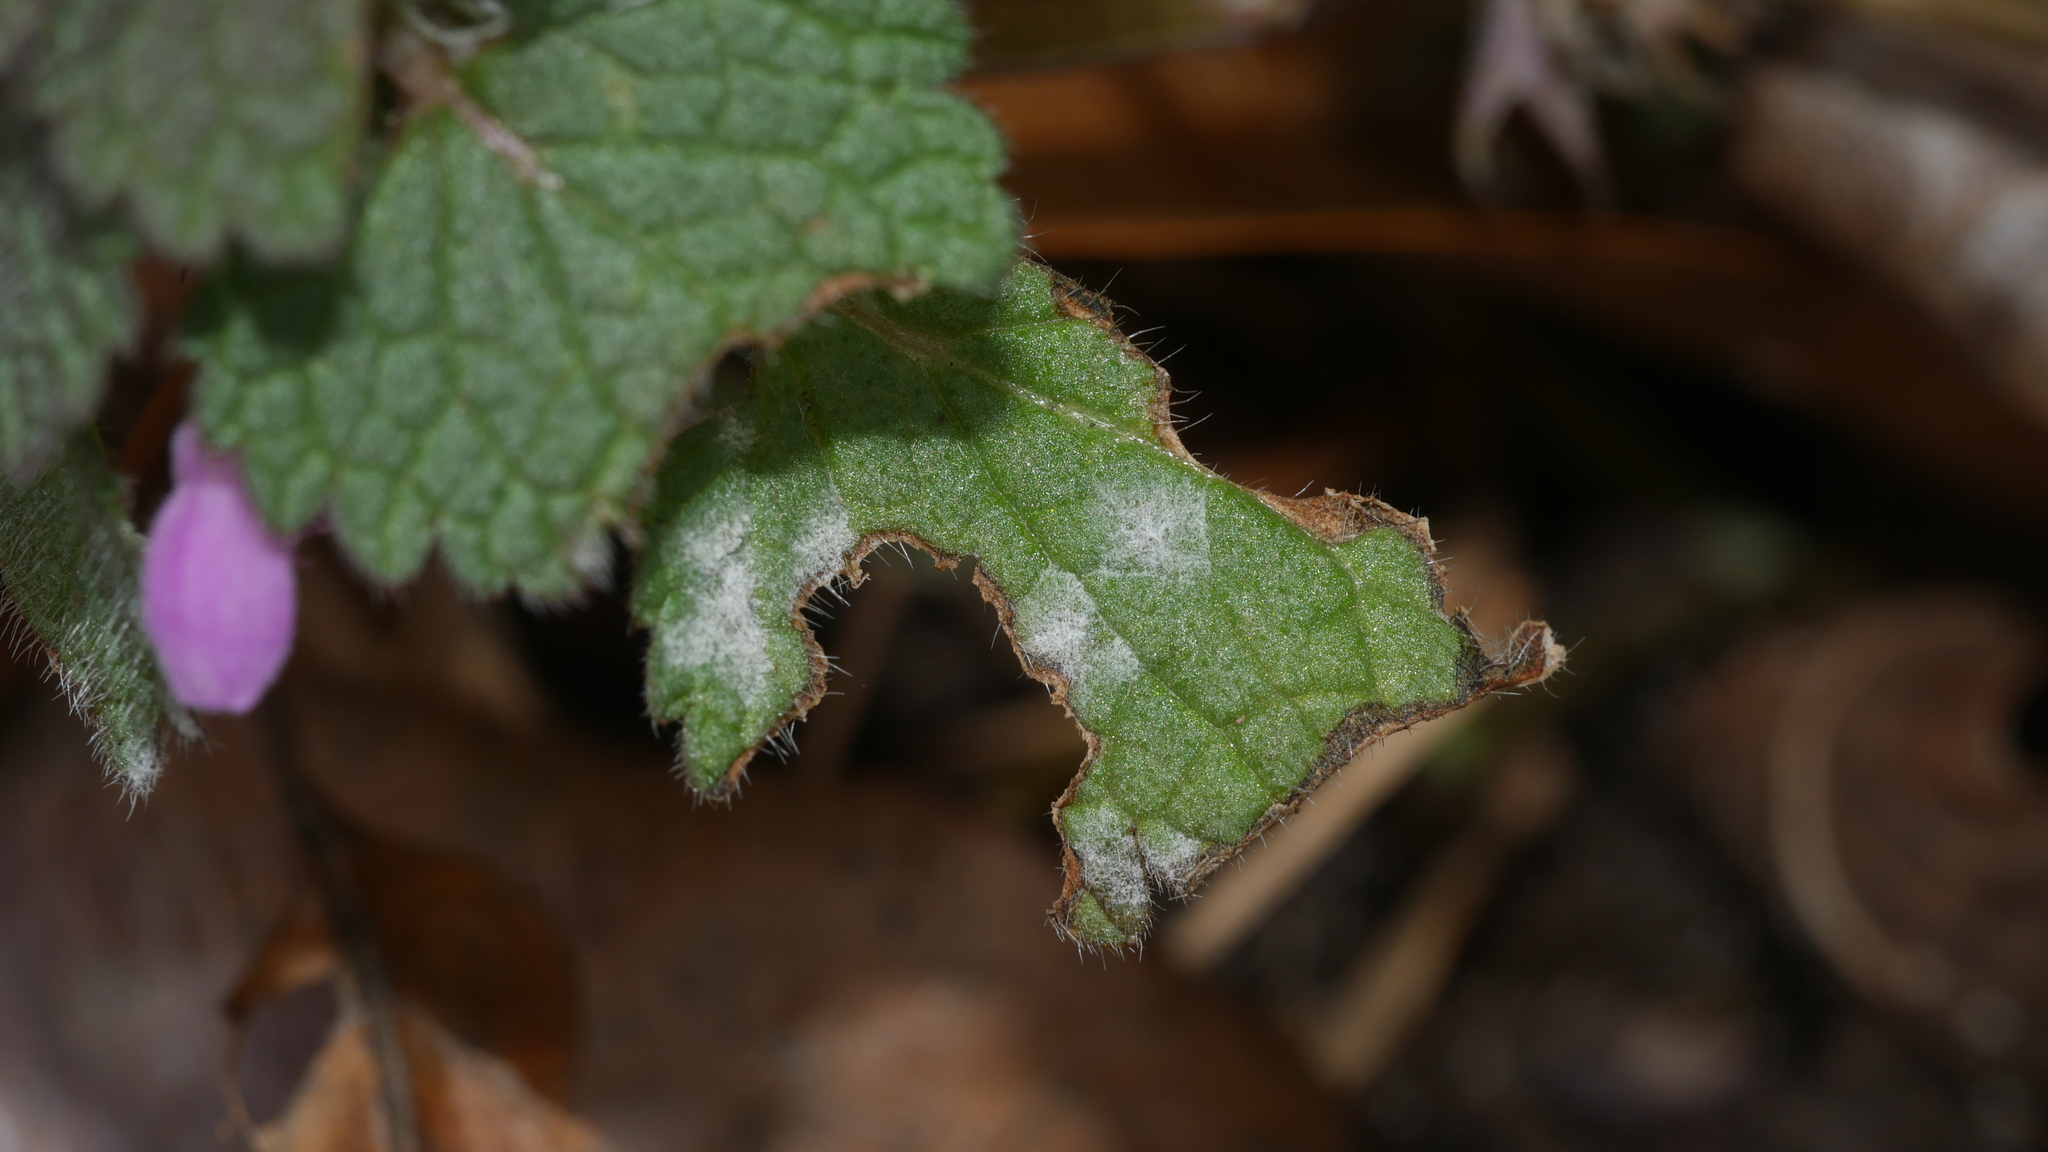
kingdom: Fungi
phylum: Ascomycota
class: Leotiomycetes
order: Helotiales
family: Erysiphaceae
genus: Neoerysiphe
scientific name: Neoerysiphe galeopsidis
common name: Mint mildew
